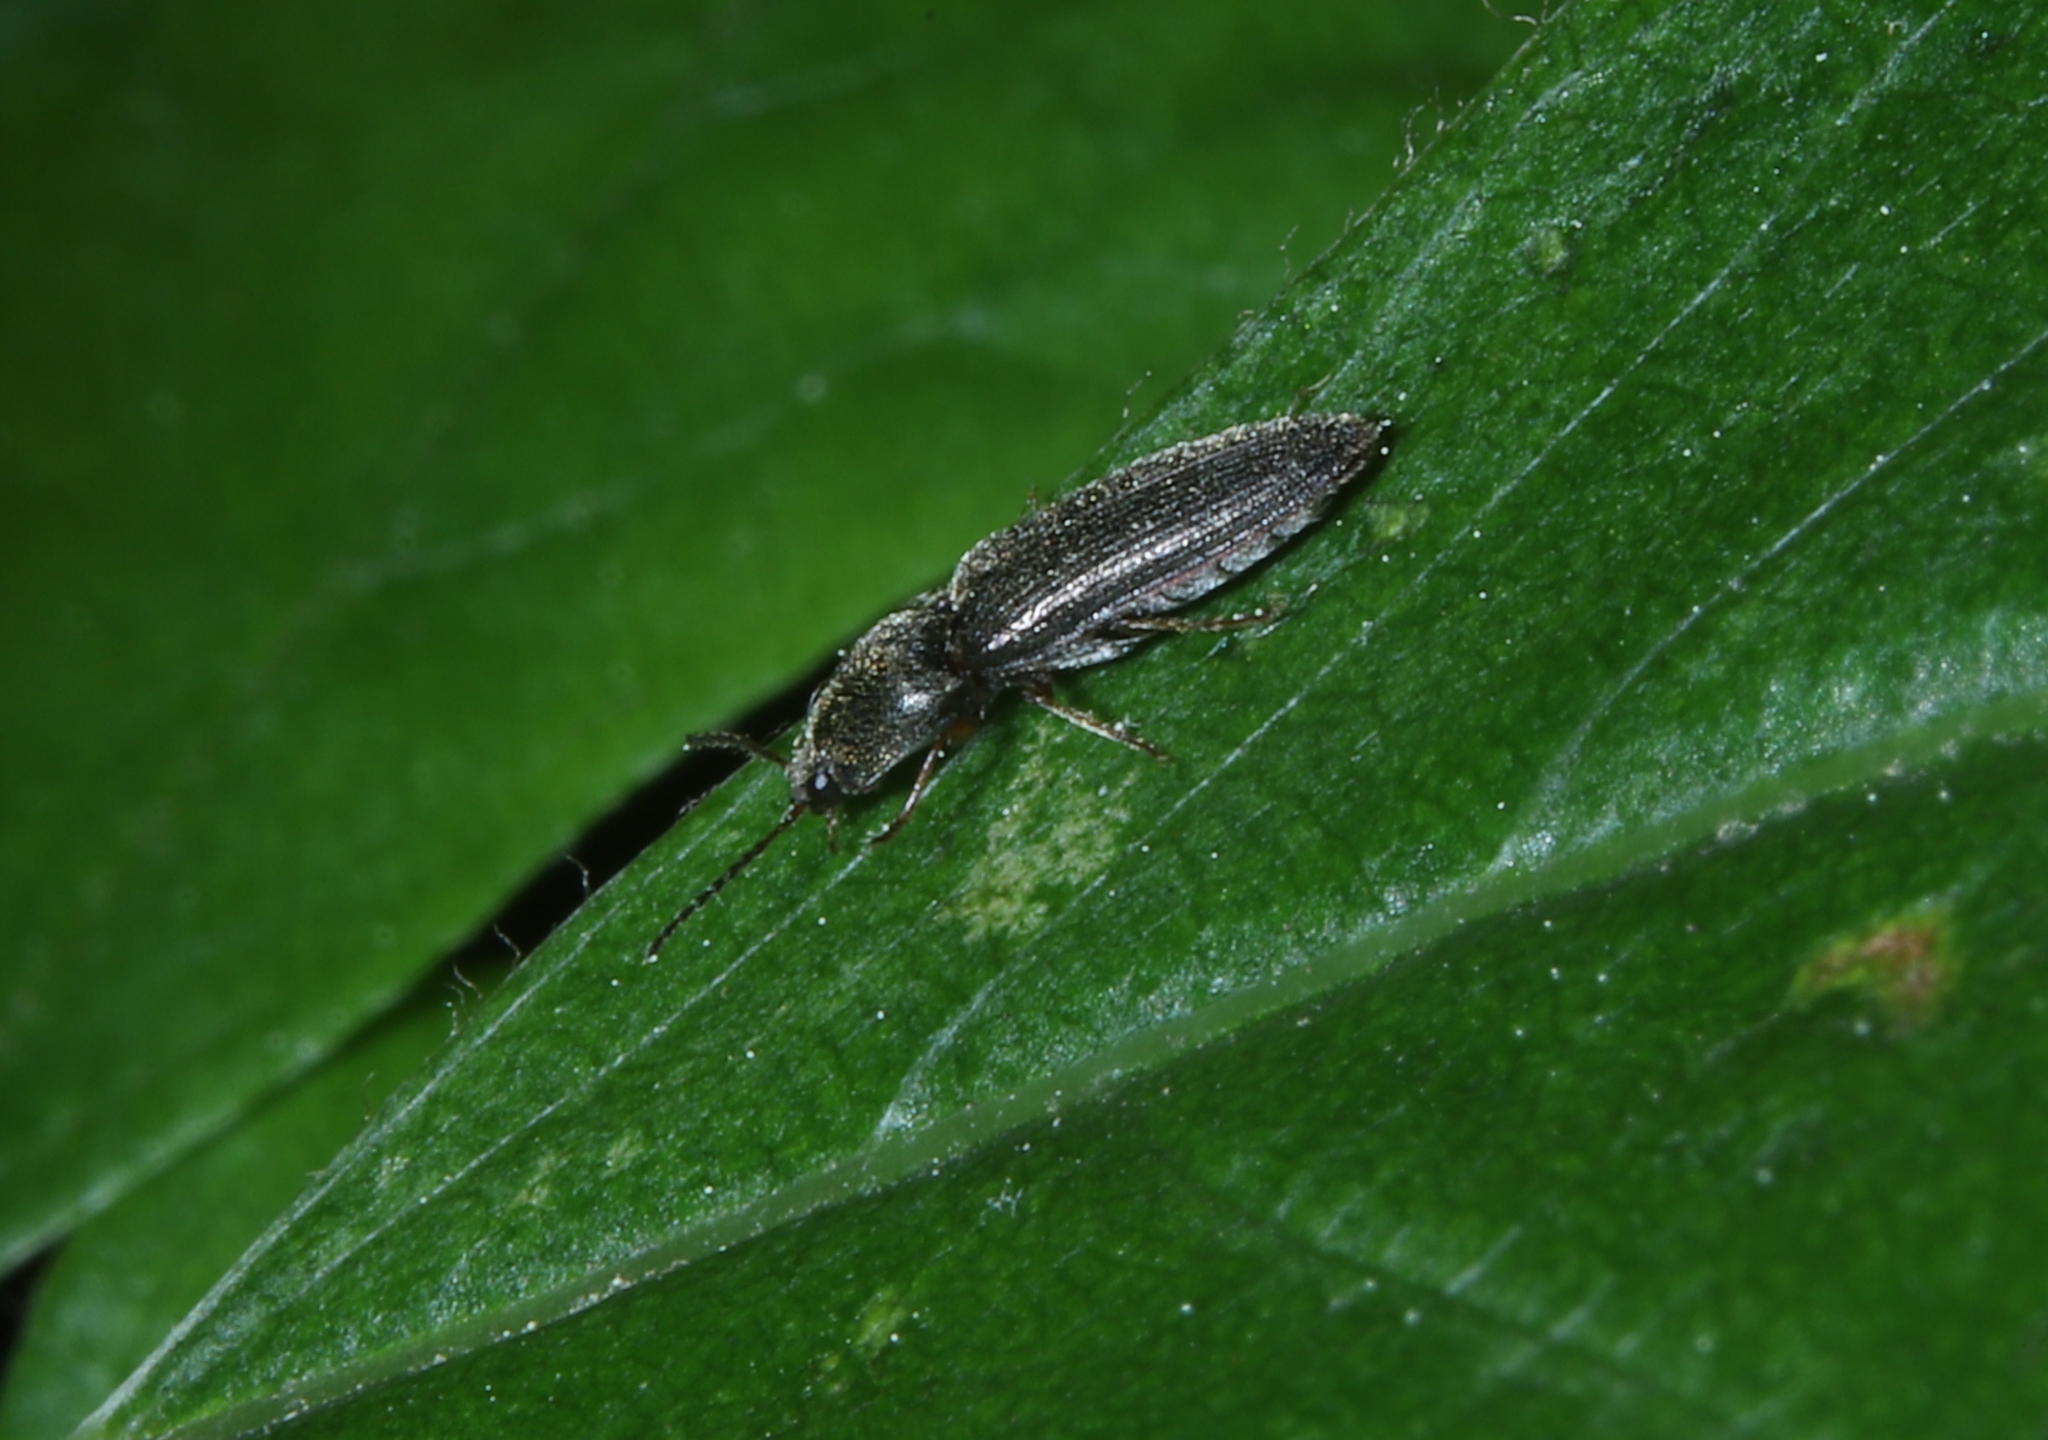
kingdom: Animalia
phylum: Arthropoda
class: Insecta
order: Coleoptera
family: Elateridae
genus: Limonius
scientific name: Limonius quercinus
